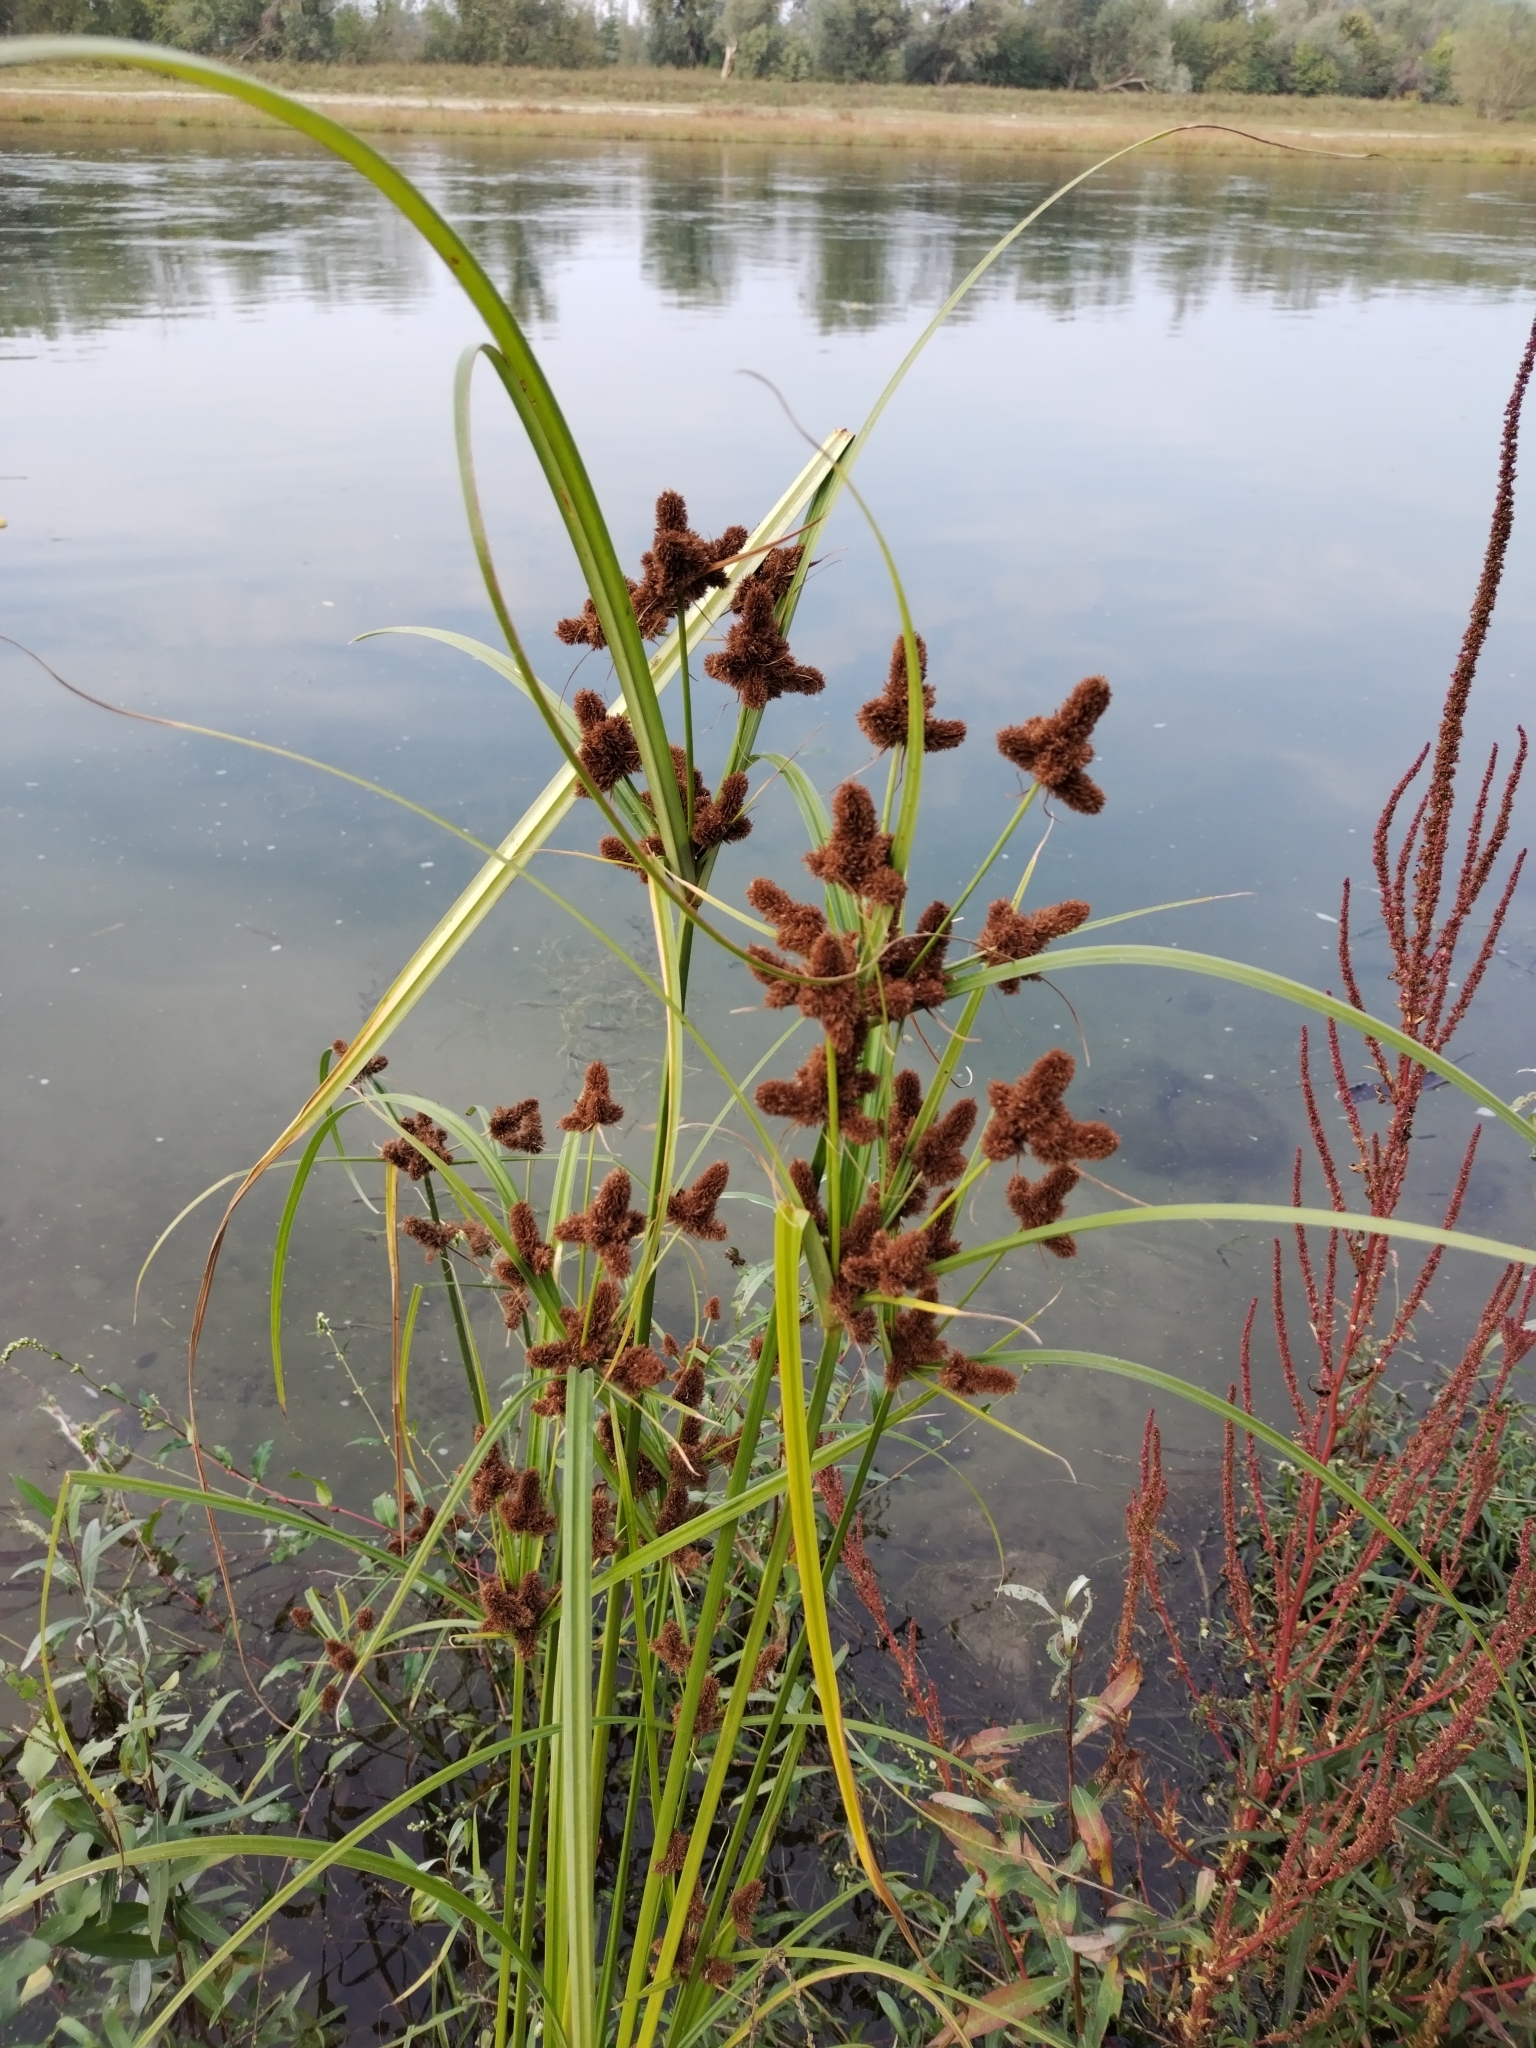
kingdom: Plantae
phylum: Tracheophyta
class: Liliopsida
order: Poales
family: Cyperaceae
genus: Cyperus
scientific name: Cyperus glomeratus
